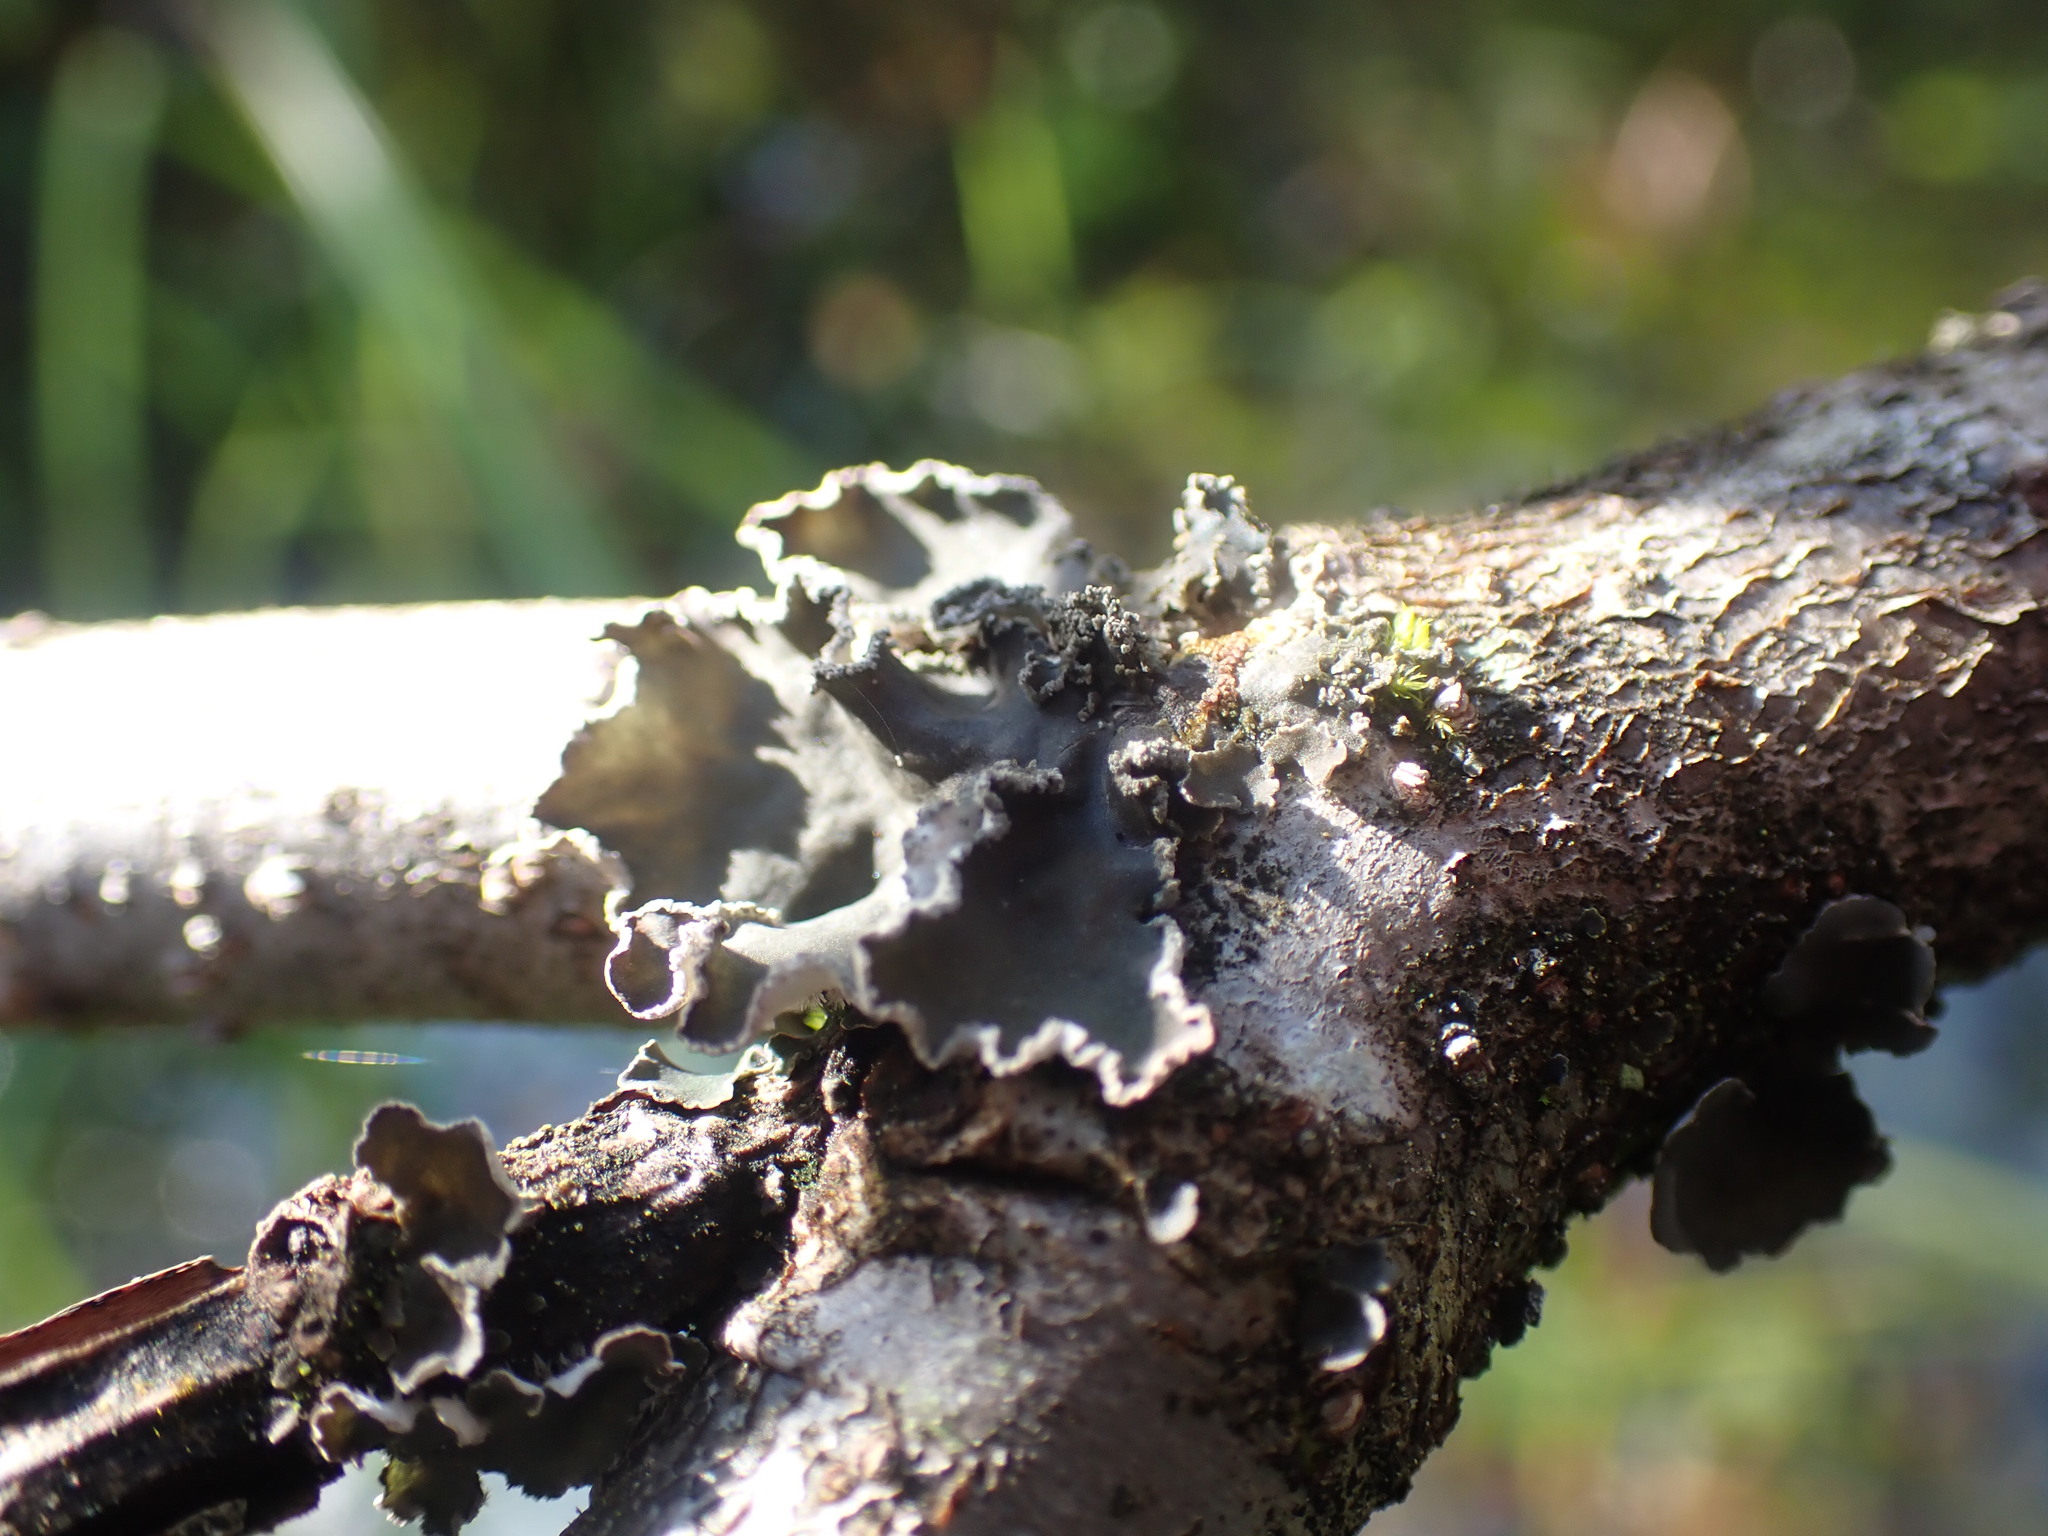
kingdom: Fungi
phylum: Ascomycota
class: Lecanoromycetes
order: Peltigerales
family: Peltigeraceae
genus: Peltigera
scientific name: Peltigera collina
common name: Gritty tree pelt lichen
